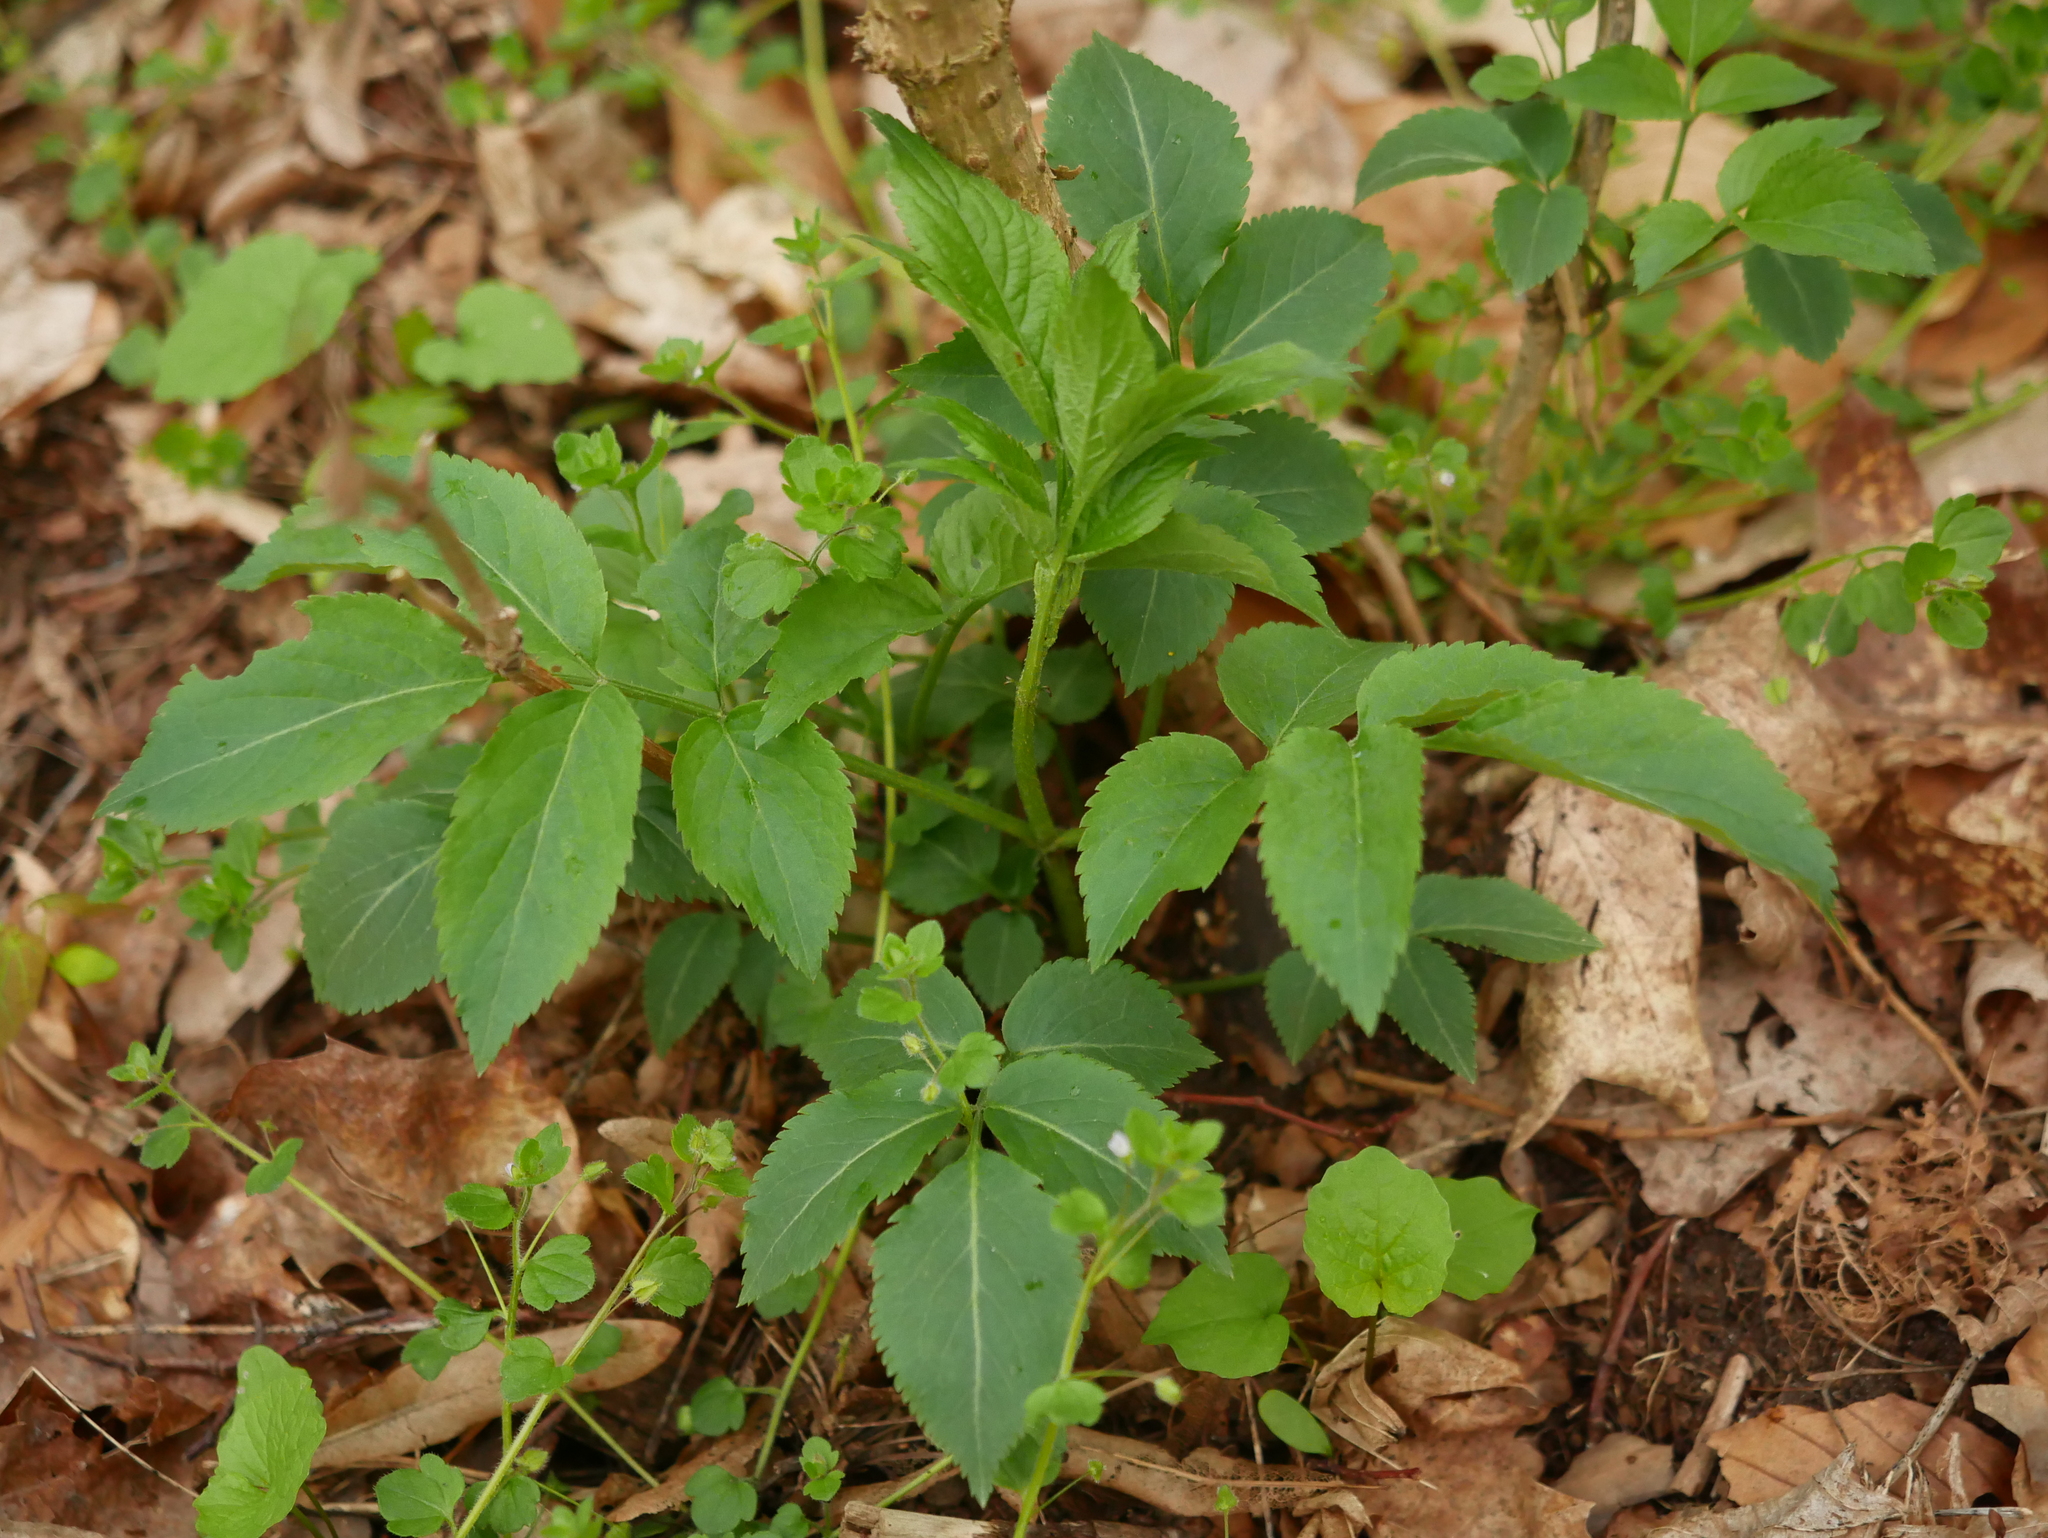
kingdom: Plantae
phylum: Tracheophyta
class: Magnoliopsida
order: Dipsacales
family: Viburnaceae
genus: Sambucus
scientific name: Sambucus nigra
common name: Elder
